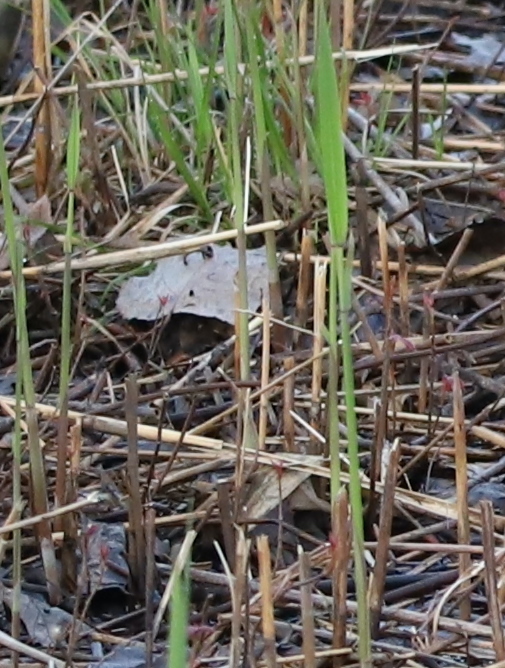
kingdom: Plantae
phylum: Tracheophyta
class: Liliopsida
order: Poales
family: Poaceae
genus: Phragmites
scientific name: Phragmites australis
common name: Common reed
